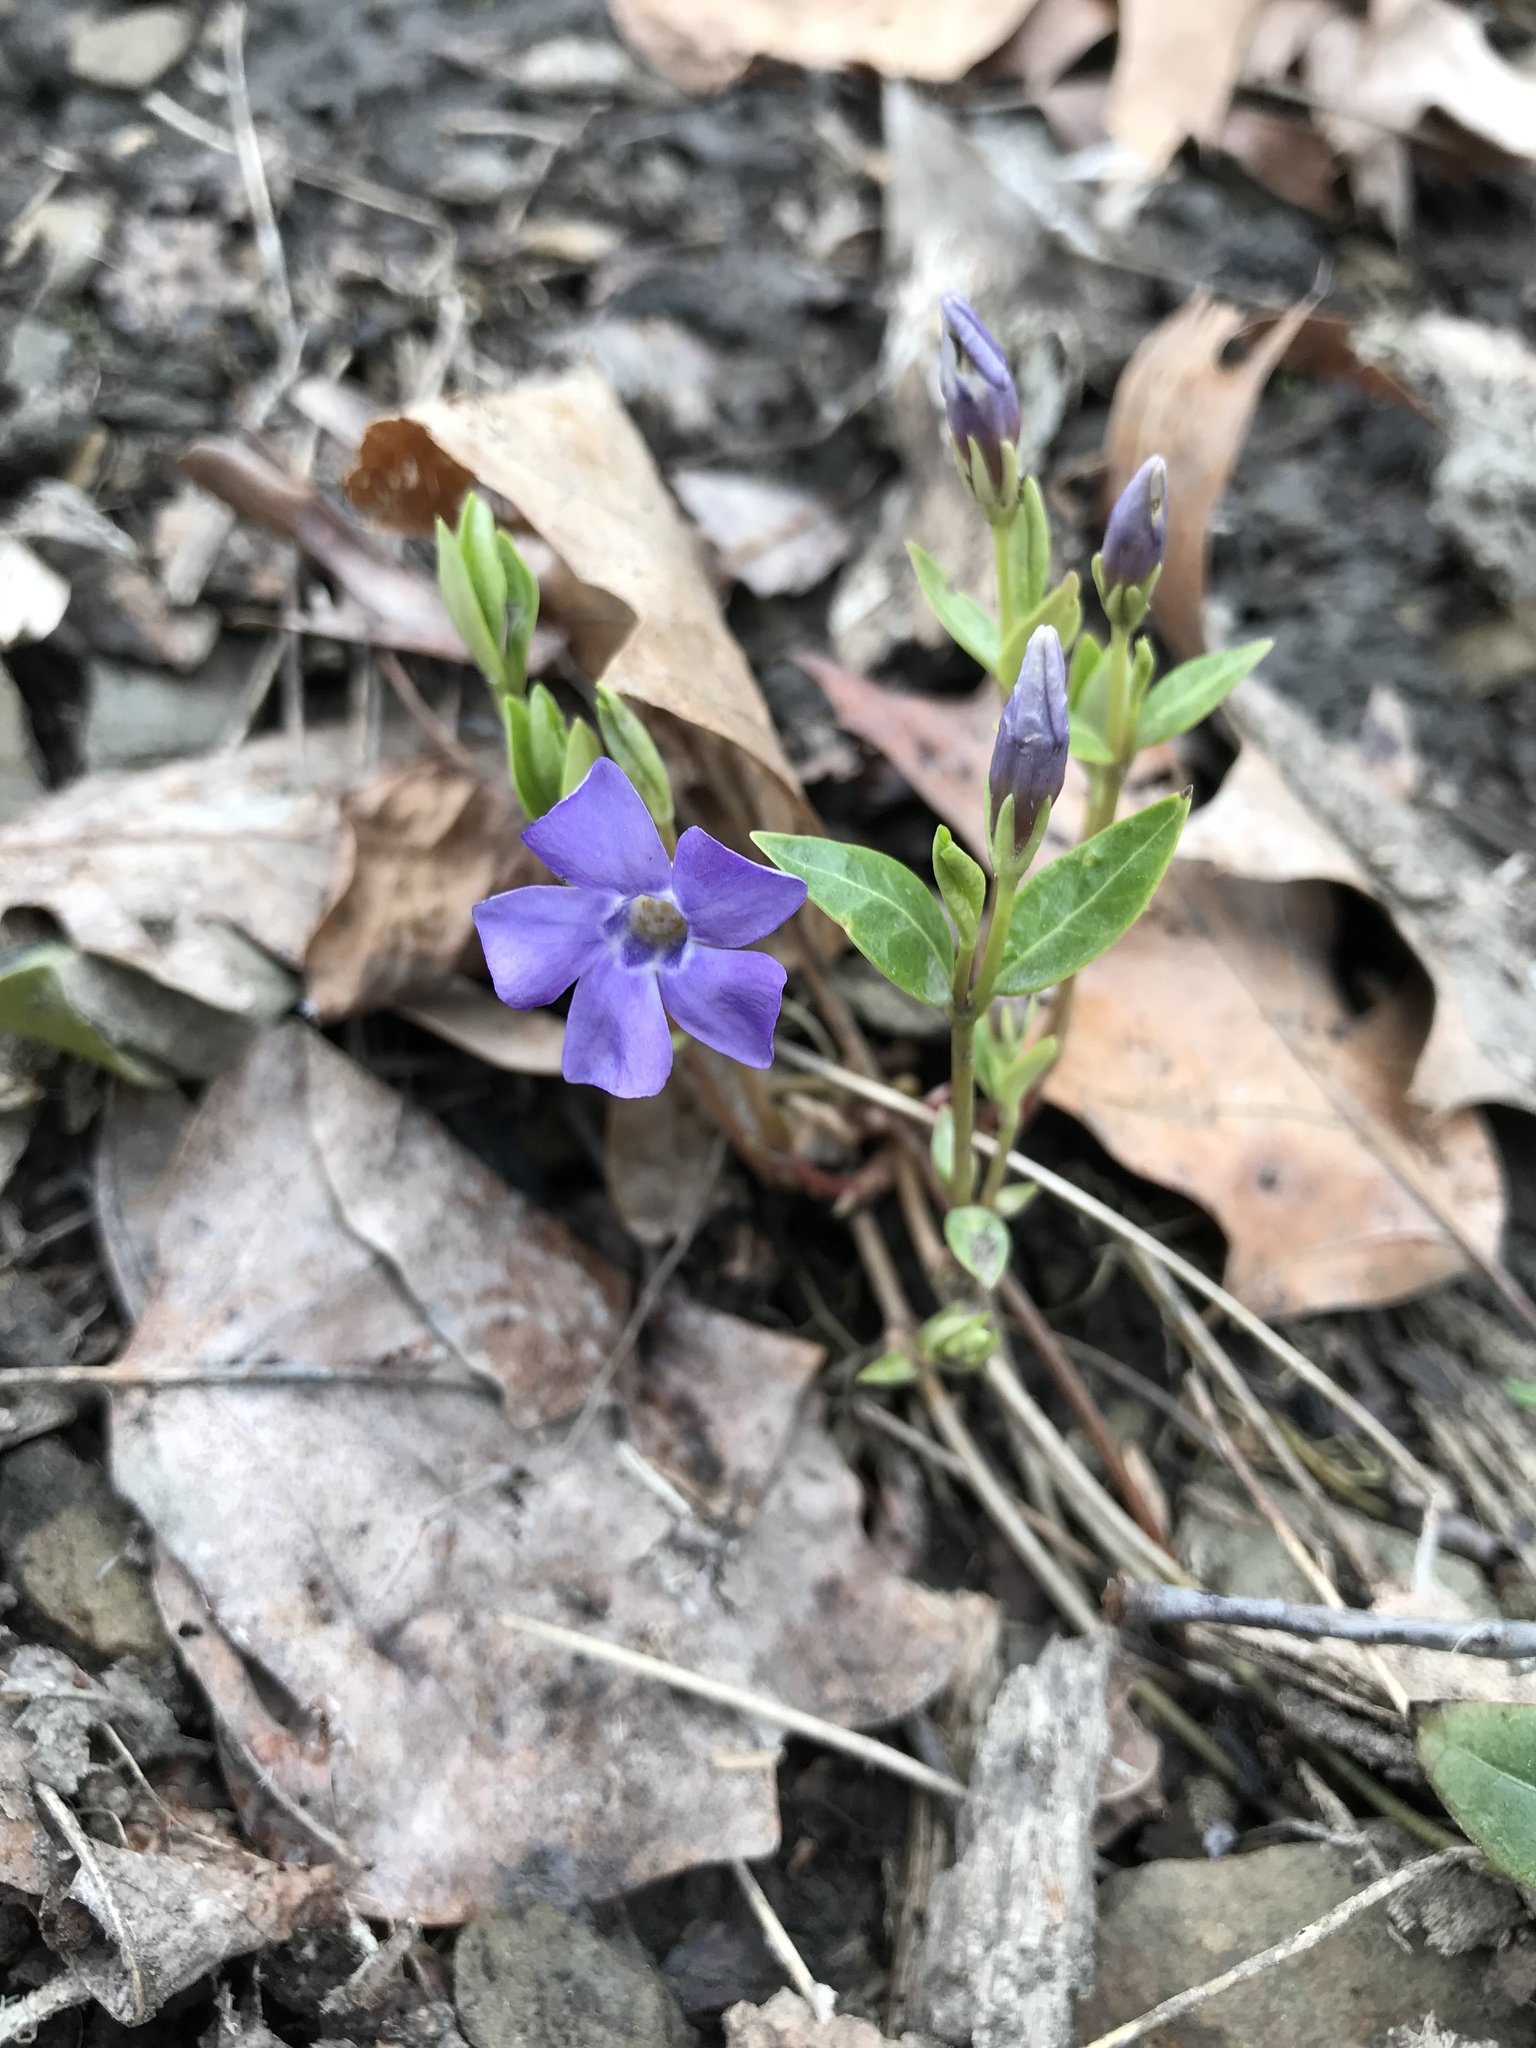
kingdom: Plantae
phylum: Tracheophyta
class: Magnoliopsida
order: Gentianales
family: Apocynaceae
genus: Vinca
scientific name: Vinca minor
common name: Lesser periwinkle
